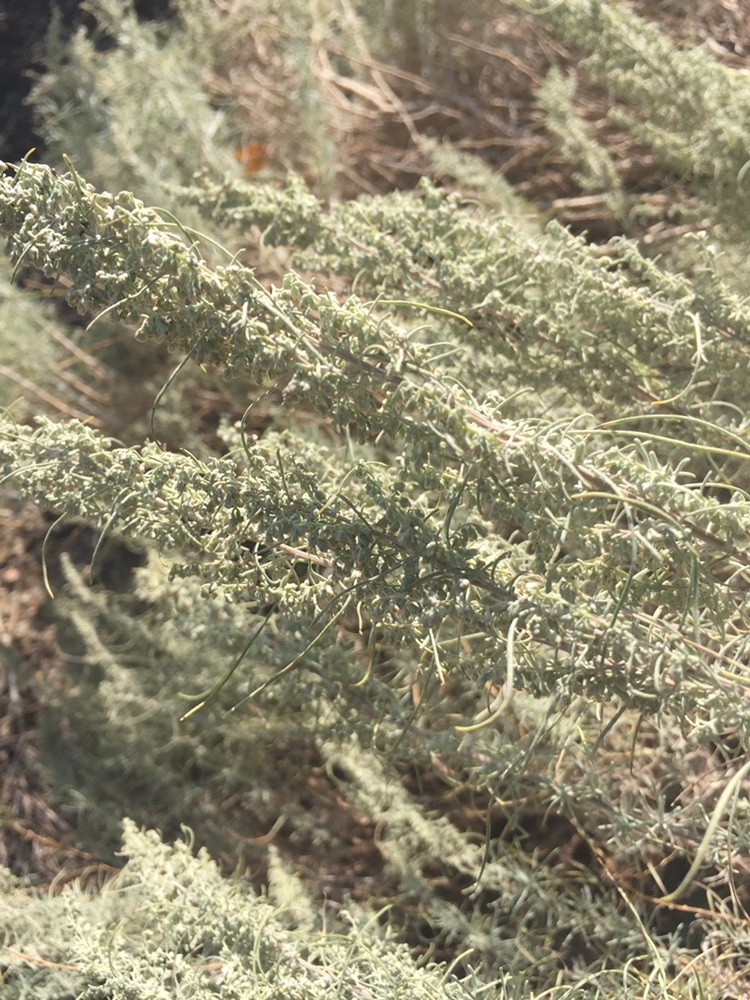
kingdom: Plantae
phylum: Tracheophyta
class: Magnoliopsida
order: Asterales
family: Asteraceae
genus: Artemisia
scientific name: Artemisia filifolia
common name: Sand-sage
